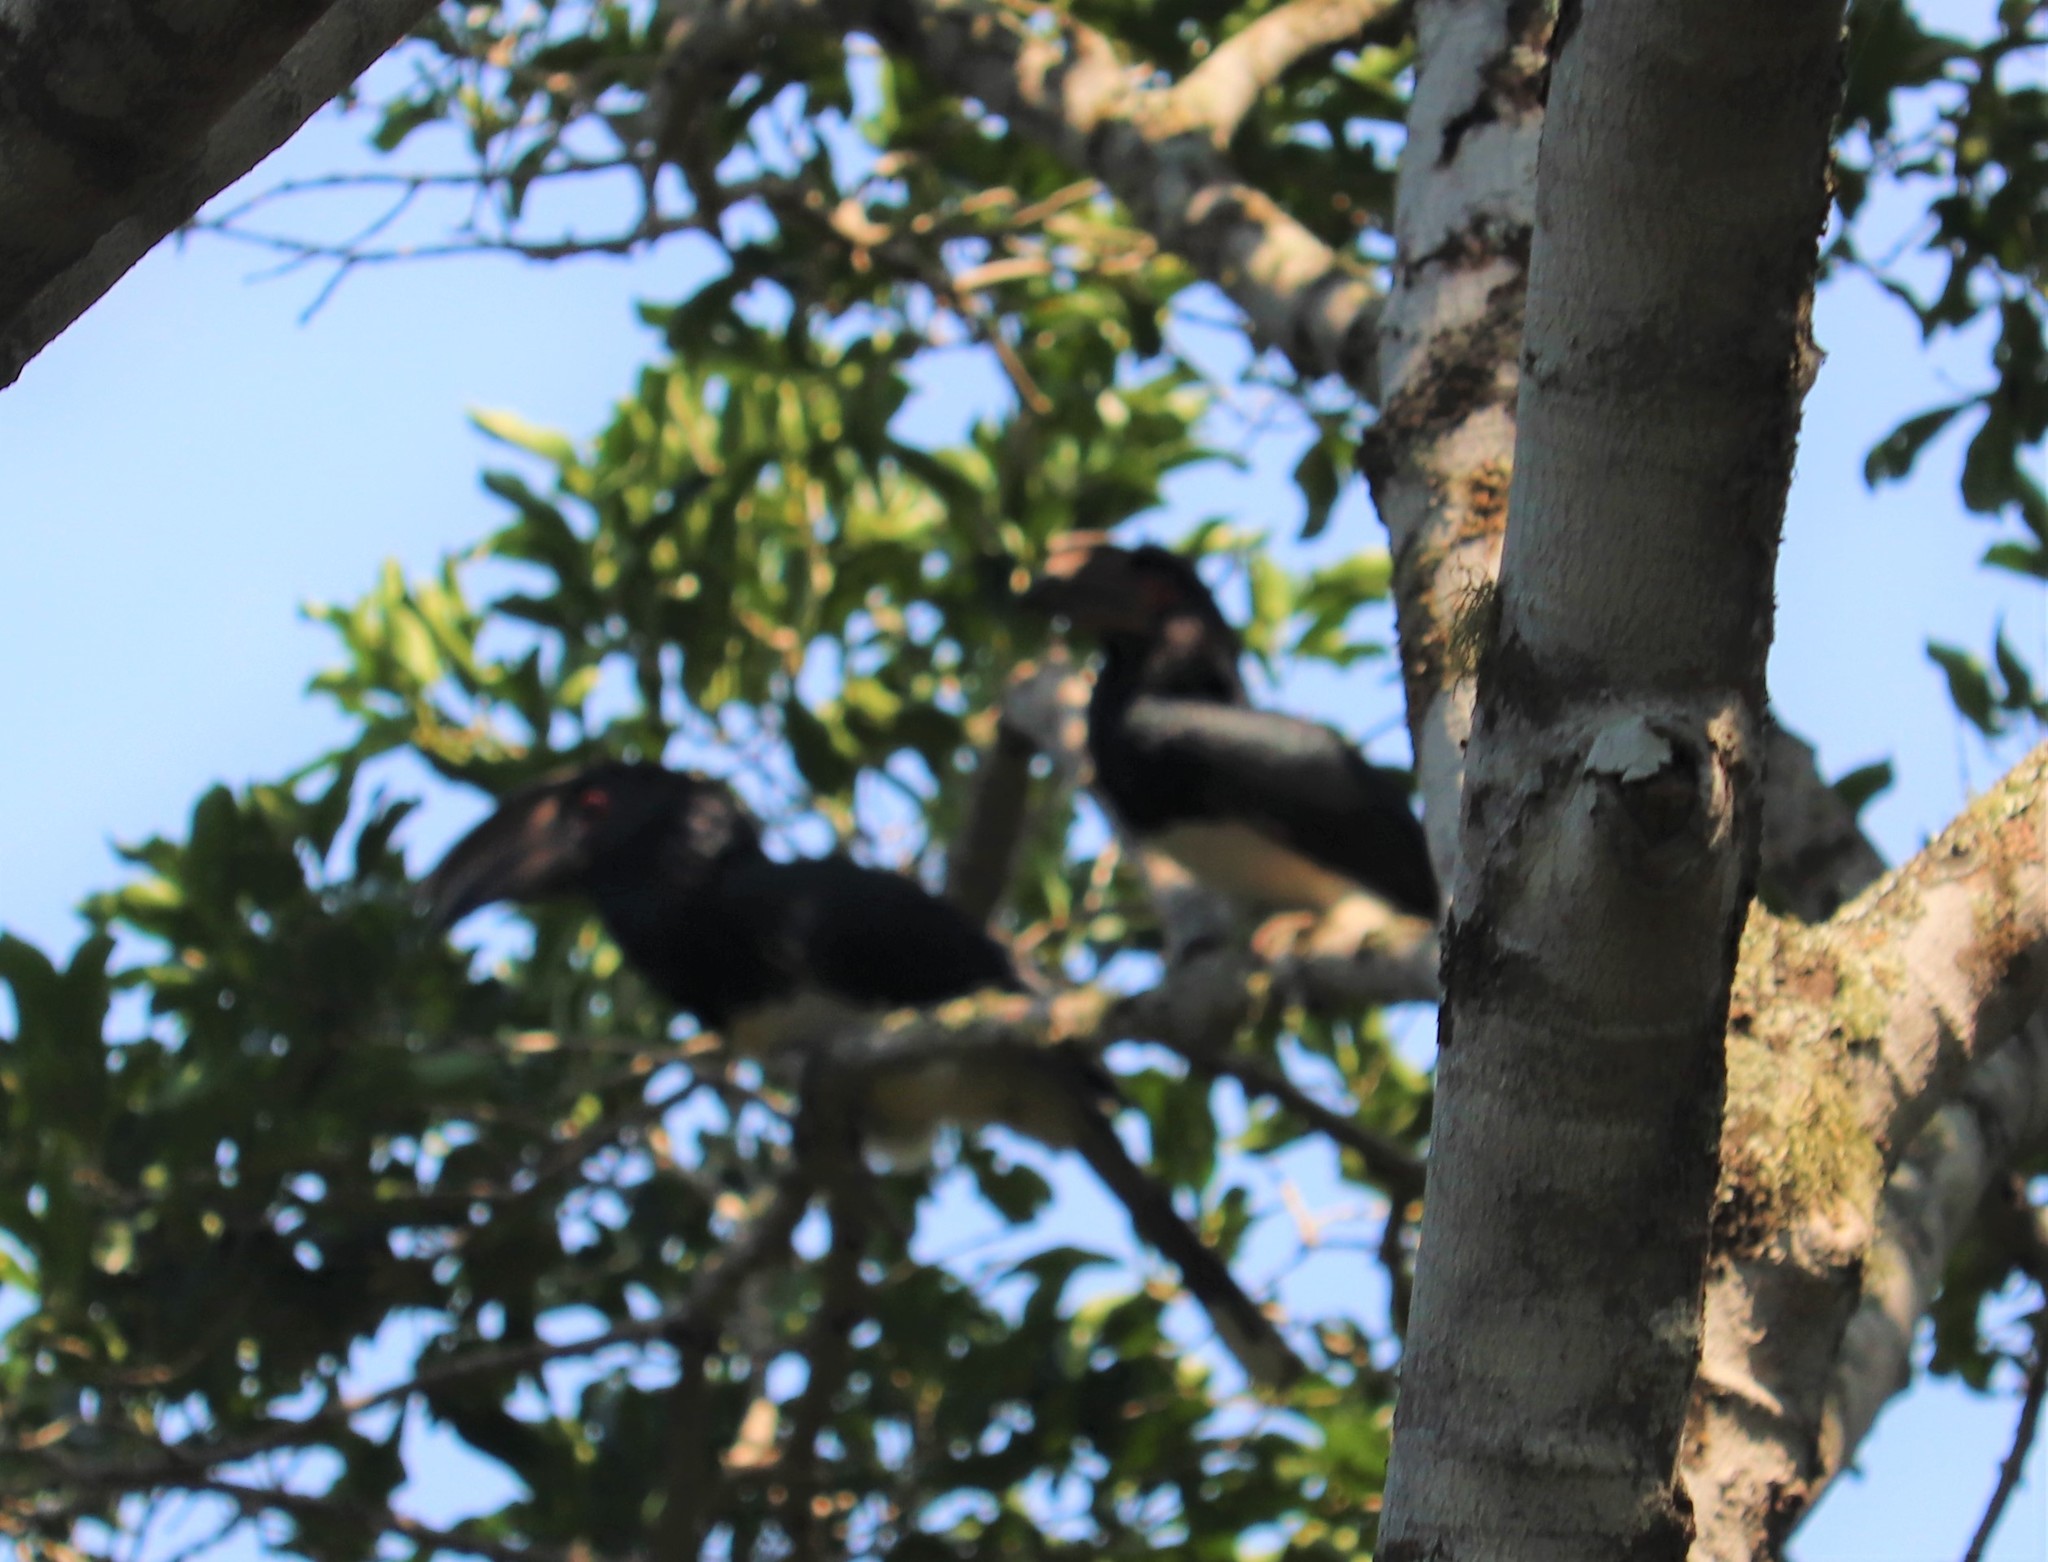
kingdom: Animalia
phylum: Chordata
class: Aves
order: Bucerotiformes
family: Bucerotidae
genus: Bycanistes
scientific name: Bycanistes bucinator
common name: Trumpeter hornbill
